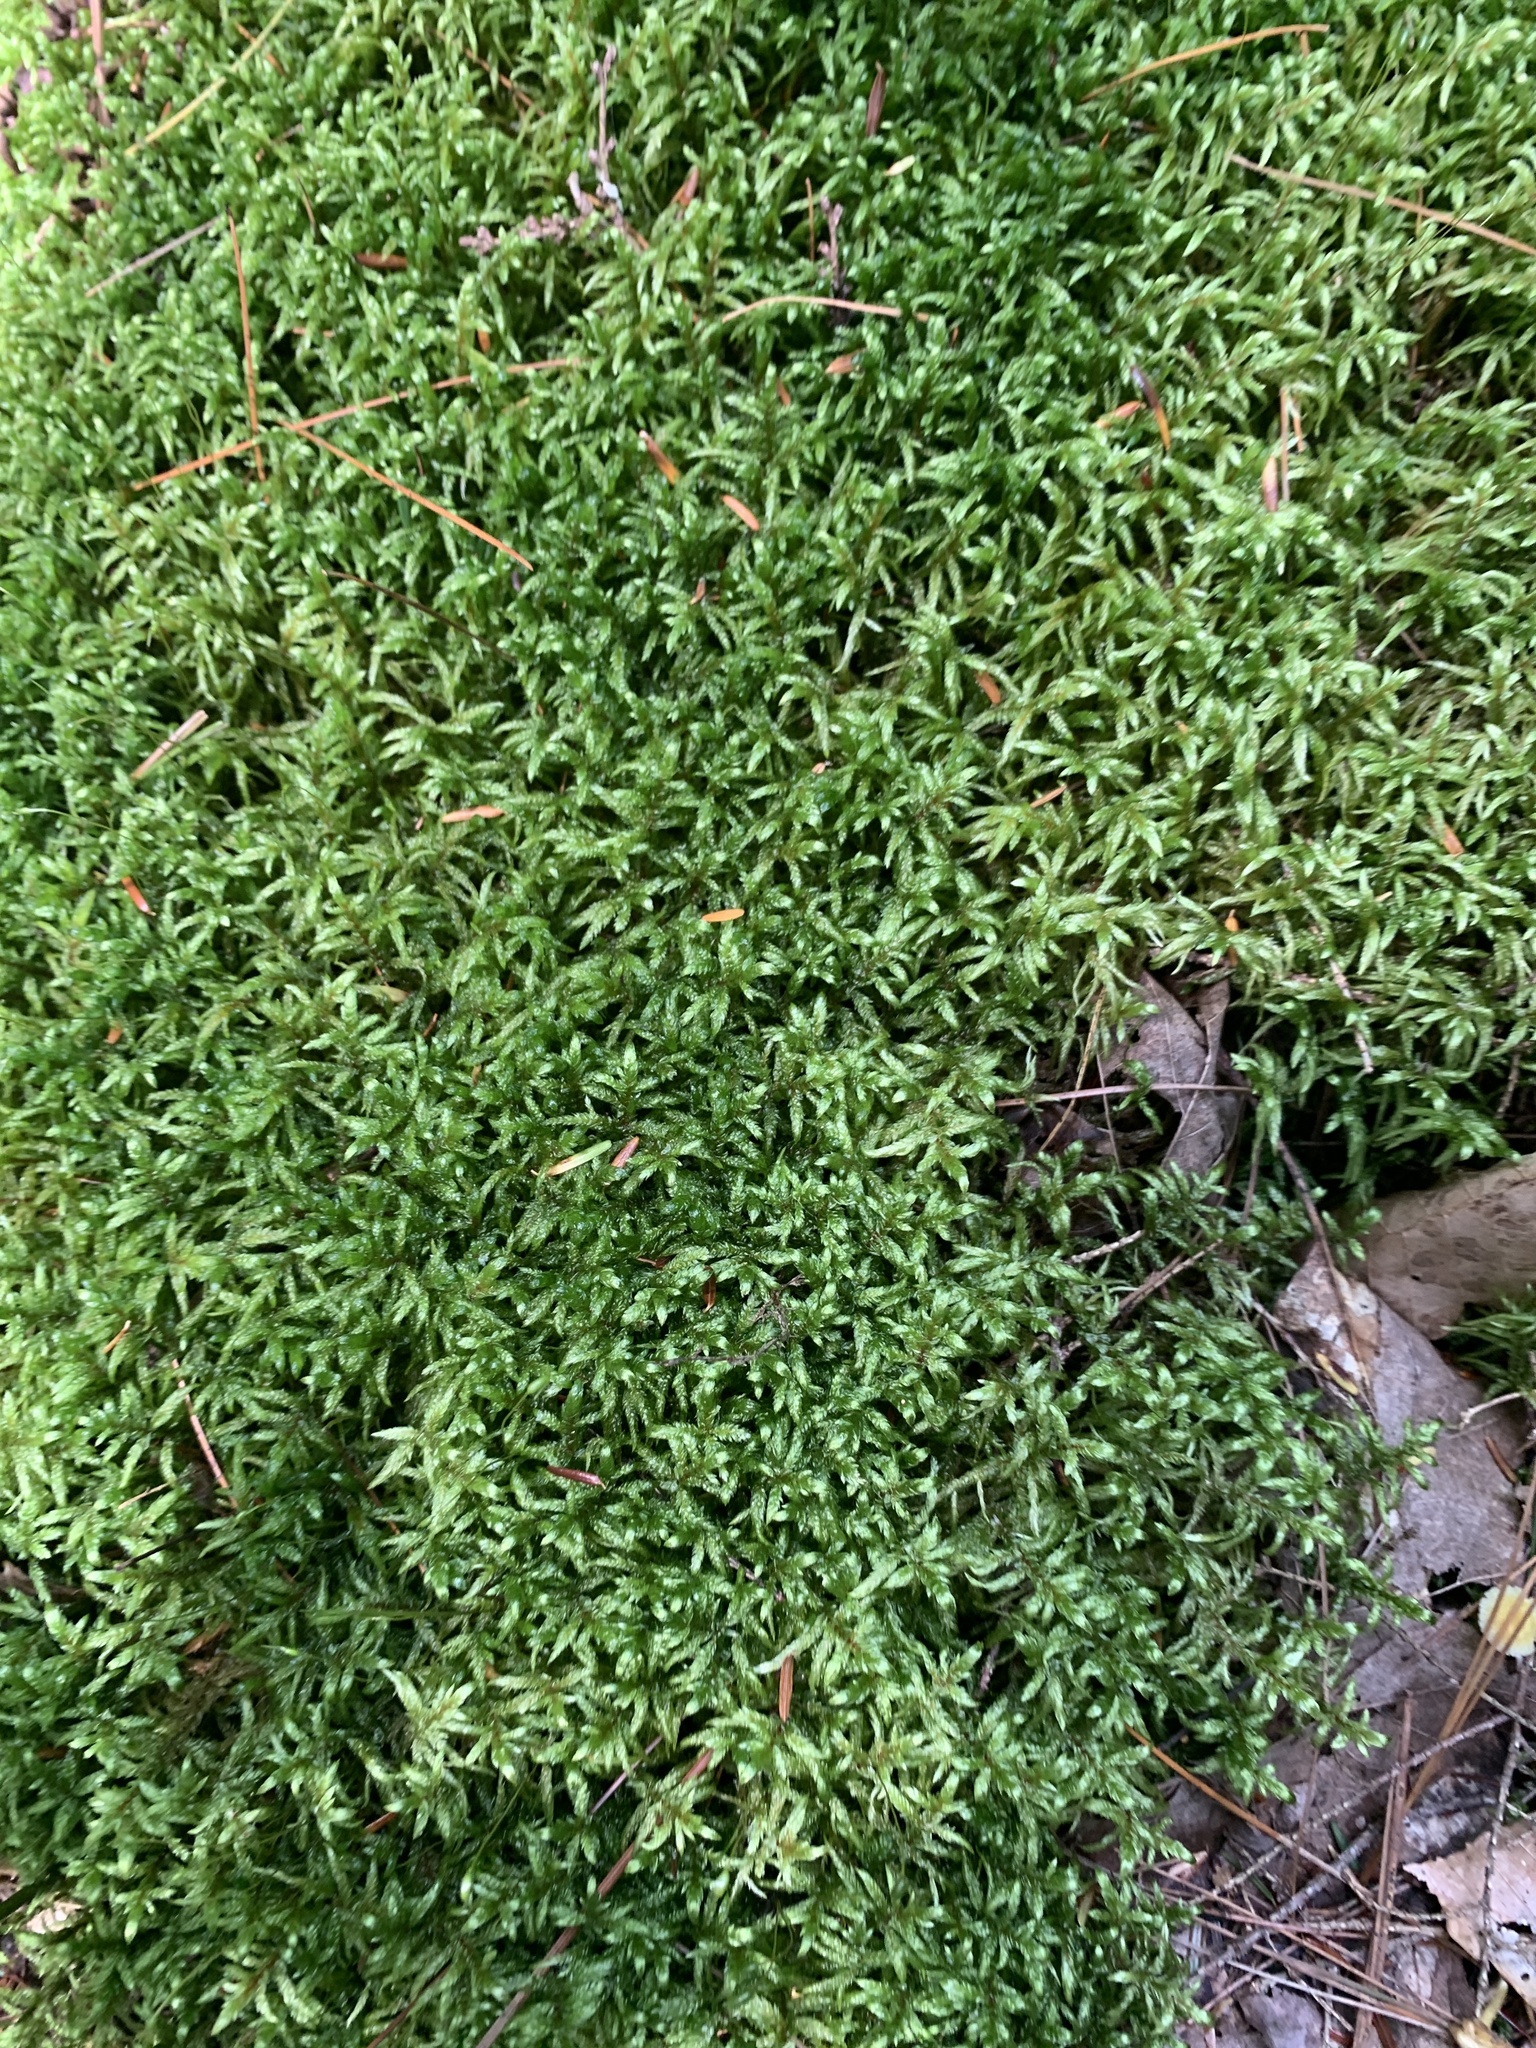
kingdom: Plantae
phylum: Bryophyta
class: Bryopsida
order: Hypnales
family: Hylocomiaceae
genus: Pleurozium
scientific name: Pleurozium schreberi
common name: Red-stemmed feather moss
